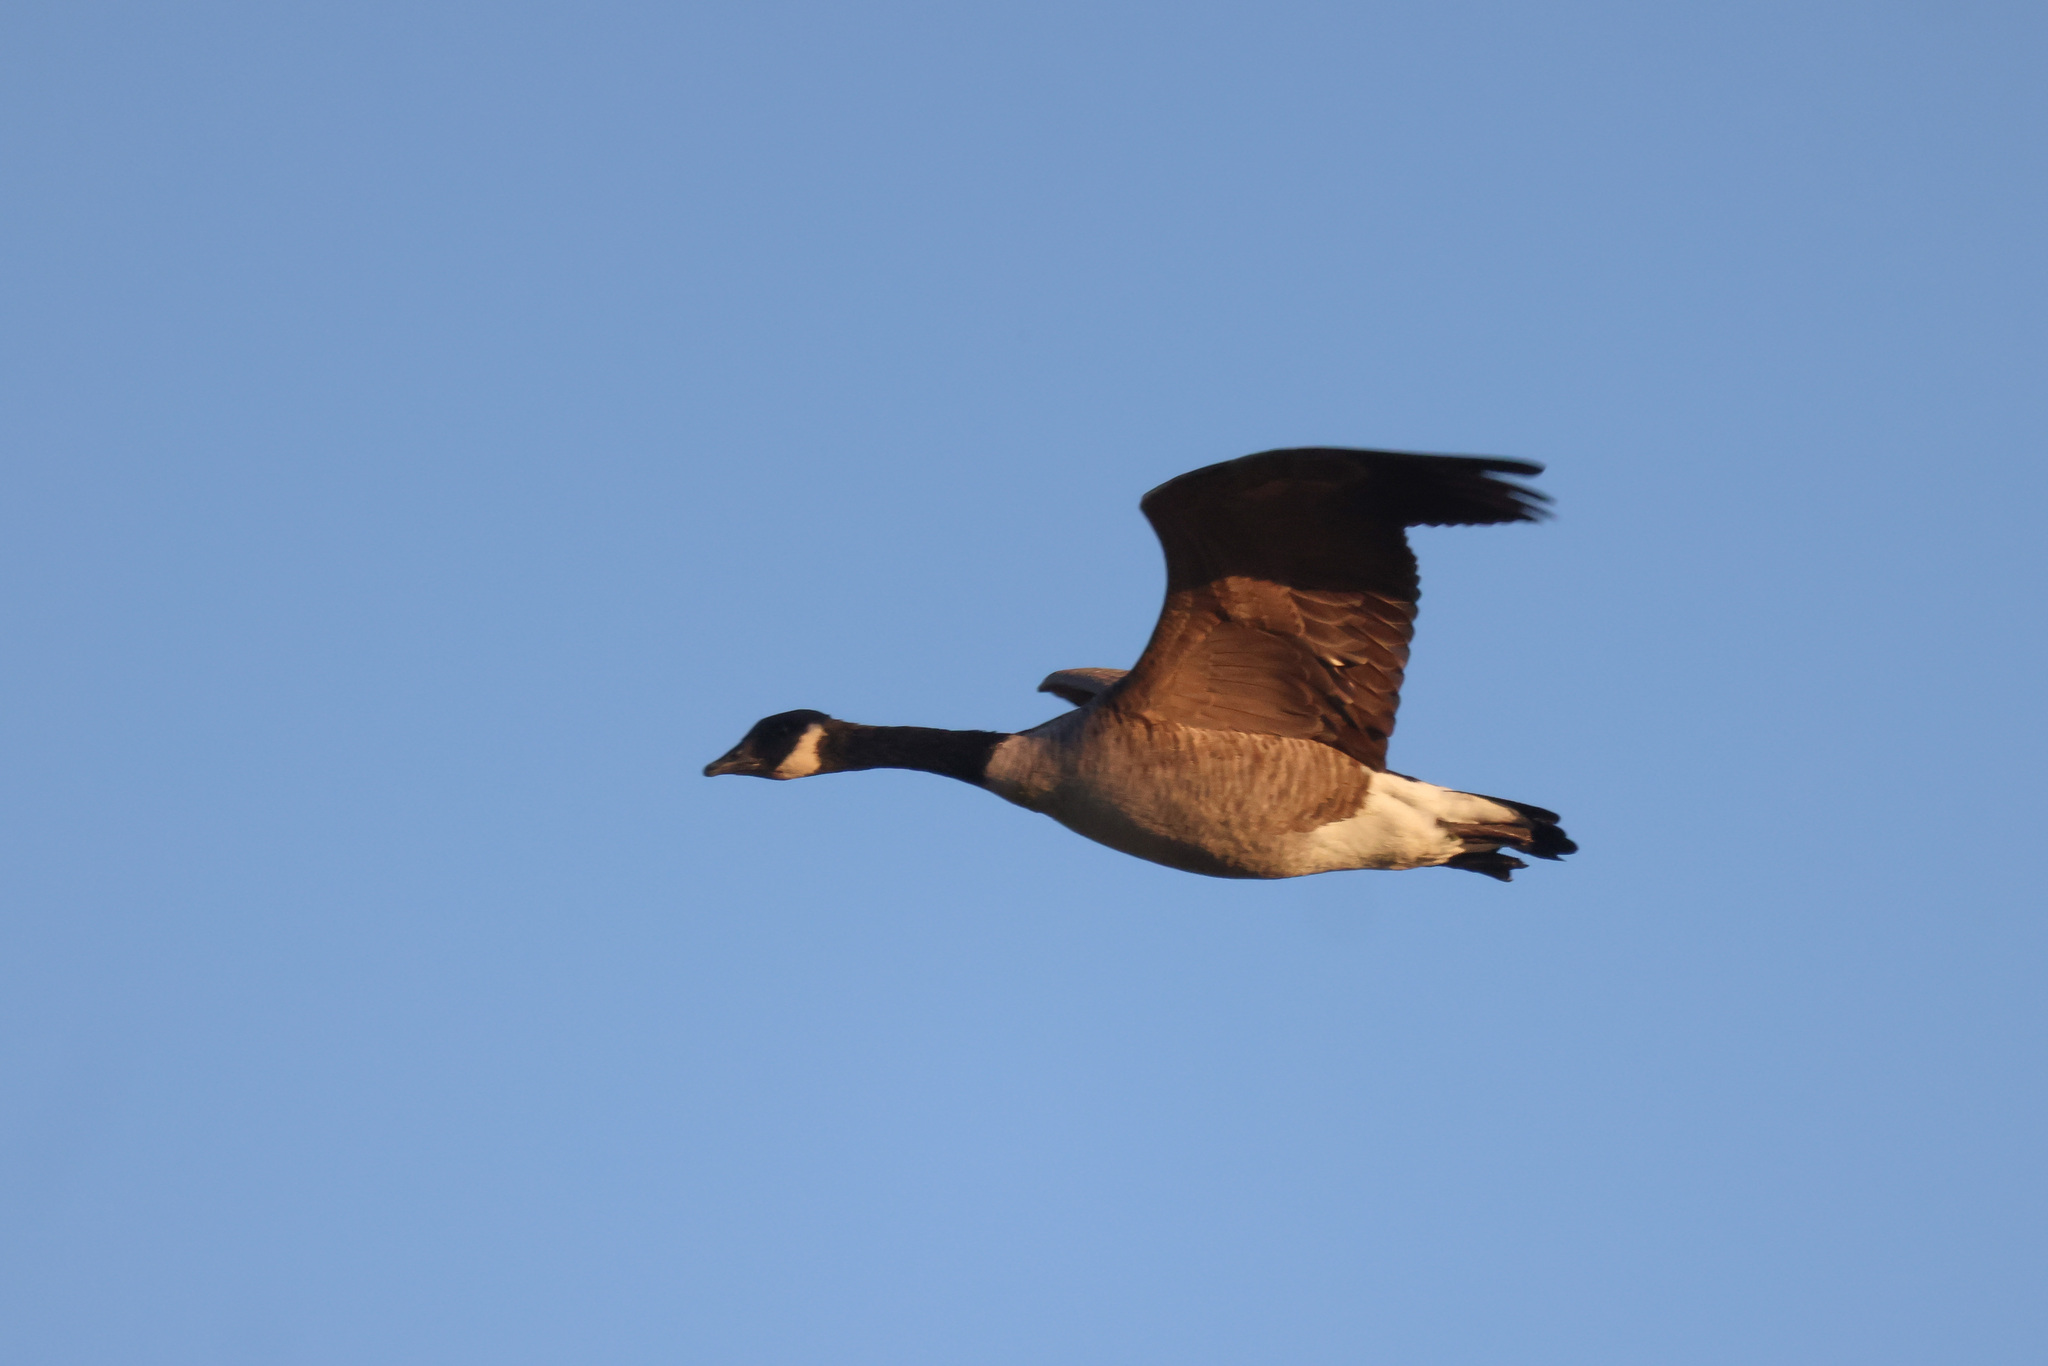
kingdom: Animalia
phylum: Chordata
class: Aves
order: Anseriformes
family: Anatidae
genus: Branta
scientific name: Branta canadensis
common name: Canada goose
